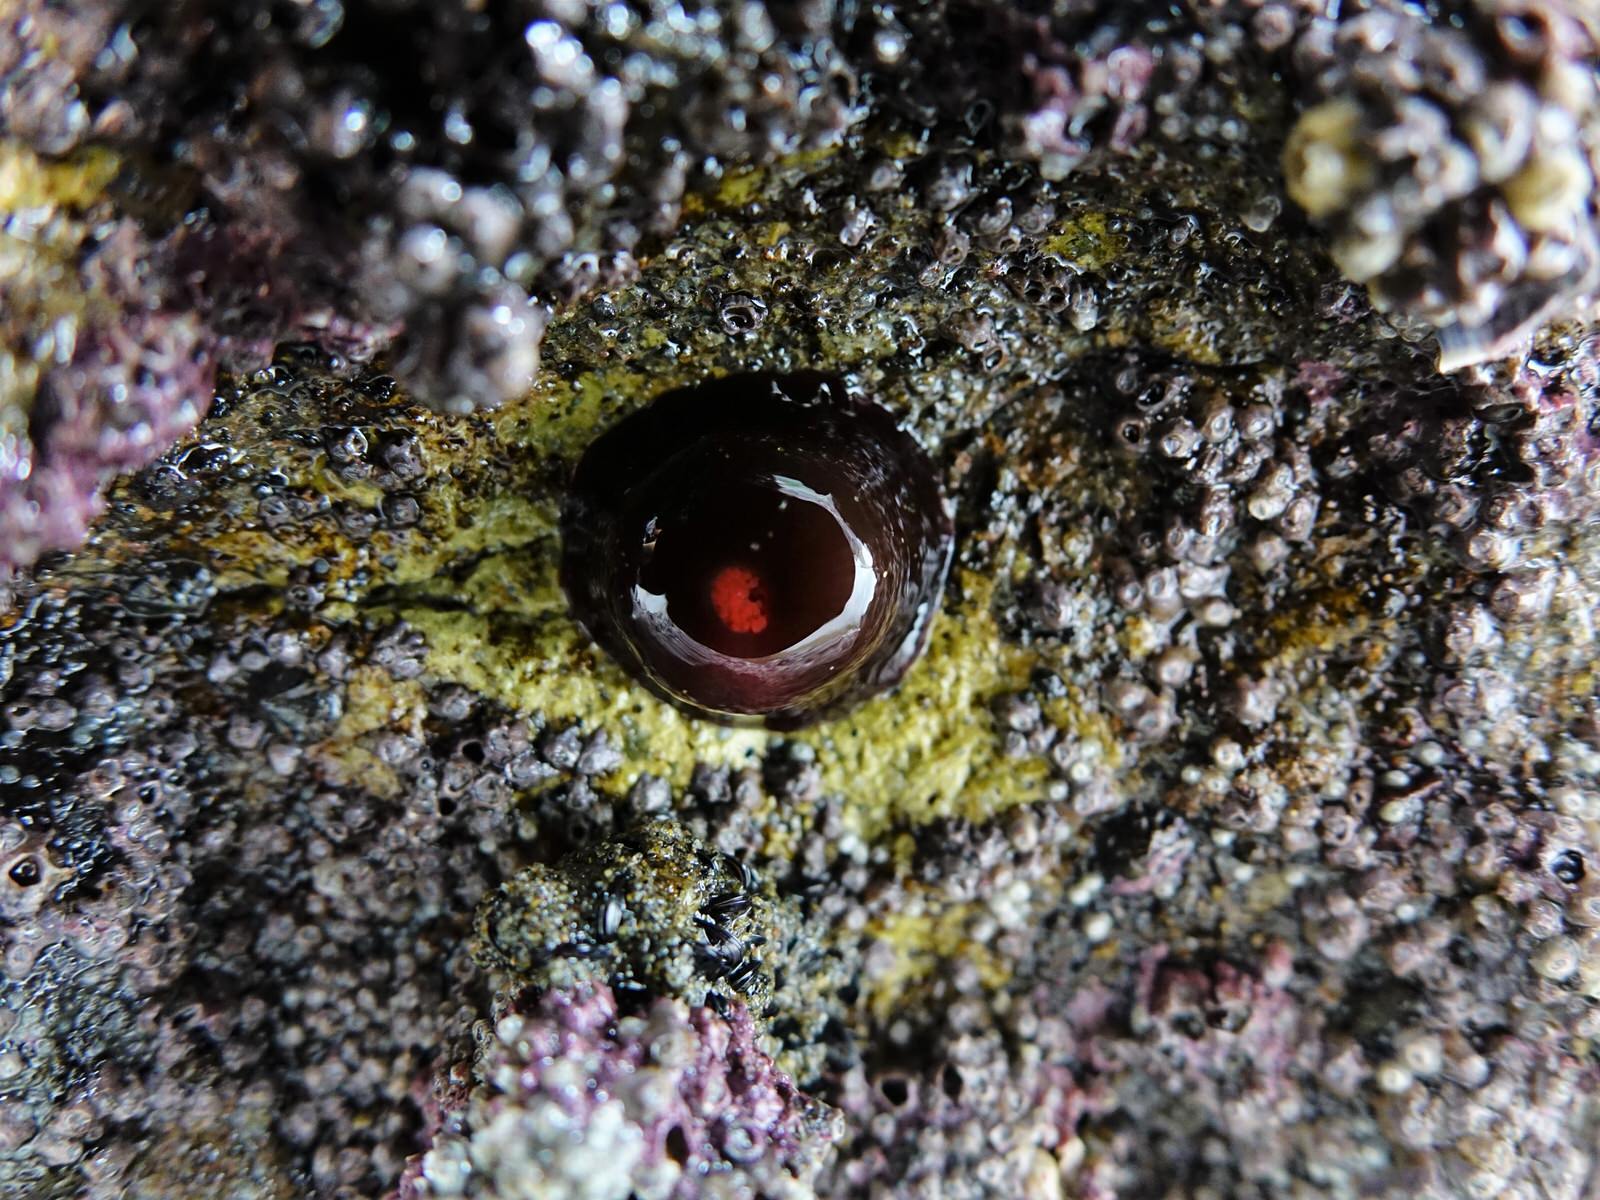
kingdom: Animalia
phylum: Cnidaria
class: Anthozoa
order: Actiniaria
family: Actiniidae
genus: Actinia
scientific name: Actinia tenebrosa
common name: Waratah anemone
